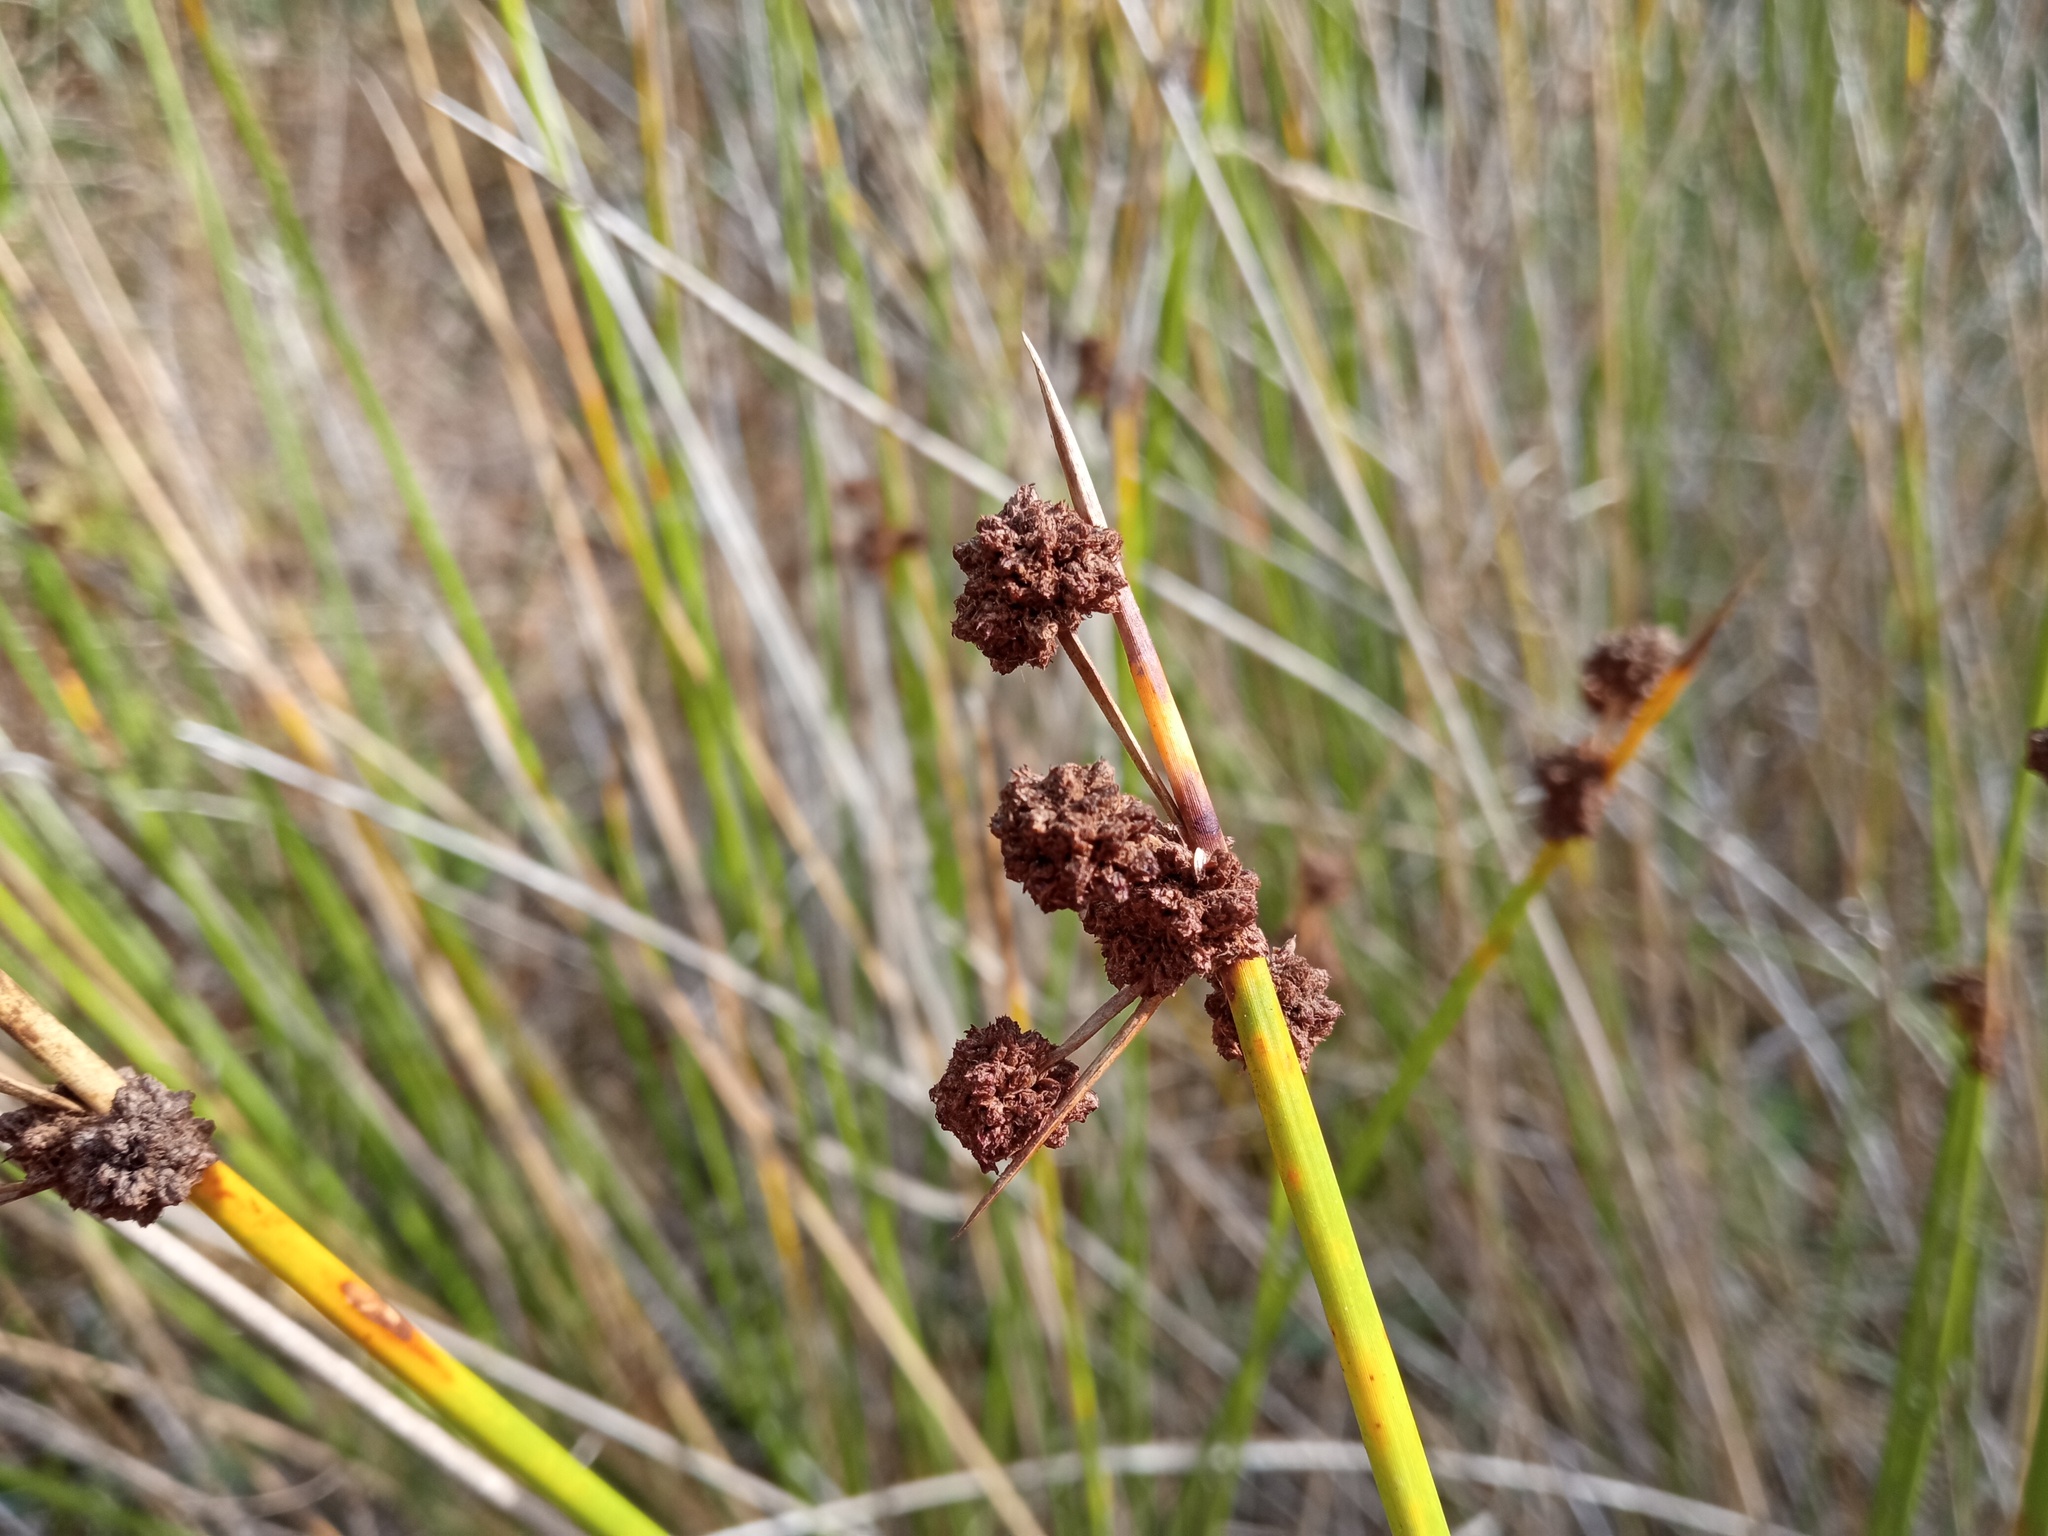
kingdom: Plantae
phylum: Tracheophyta
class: Liliopsida
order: Poales
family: Cyperaceae
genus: Scirpoides
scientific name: Scirpoides holoschoenus
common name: Round-headed club-rush
